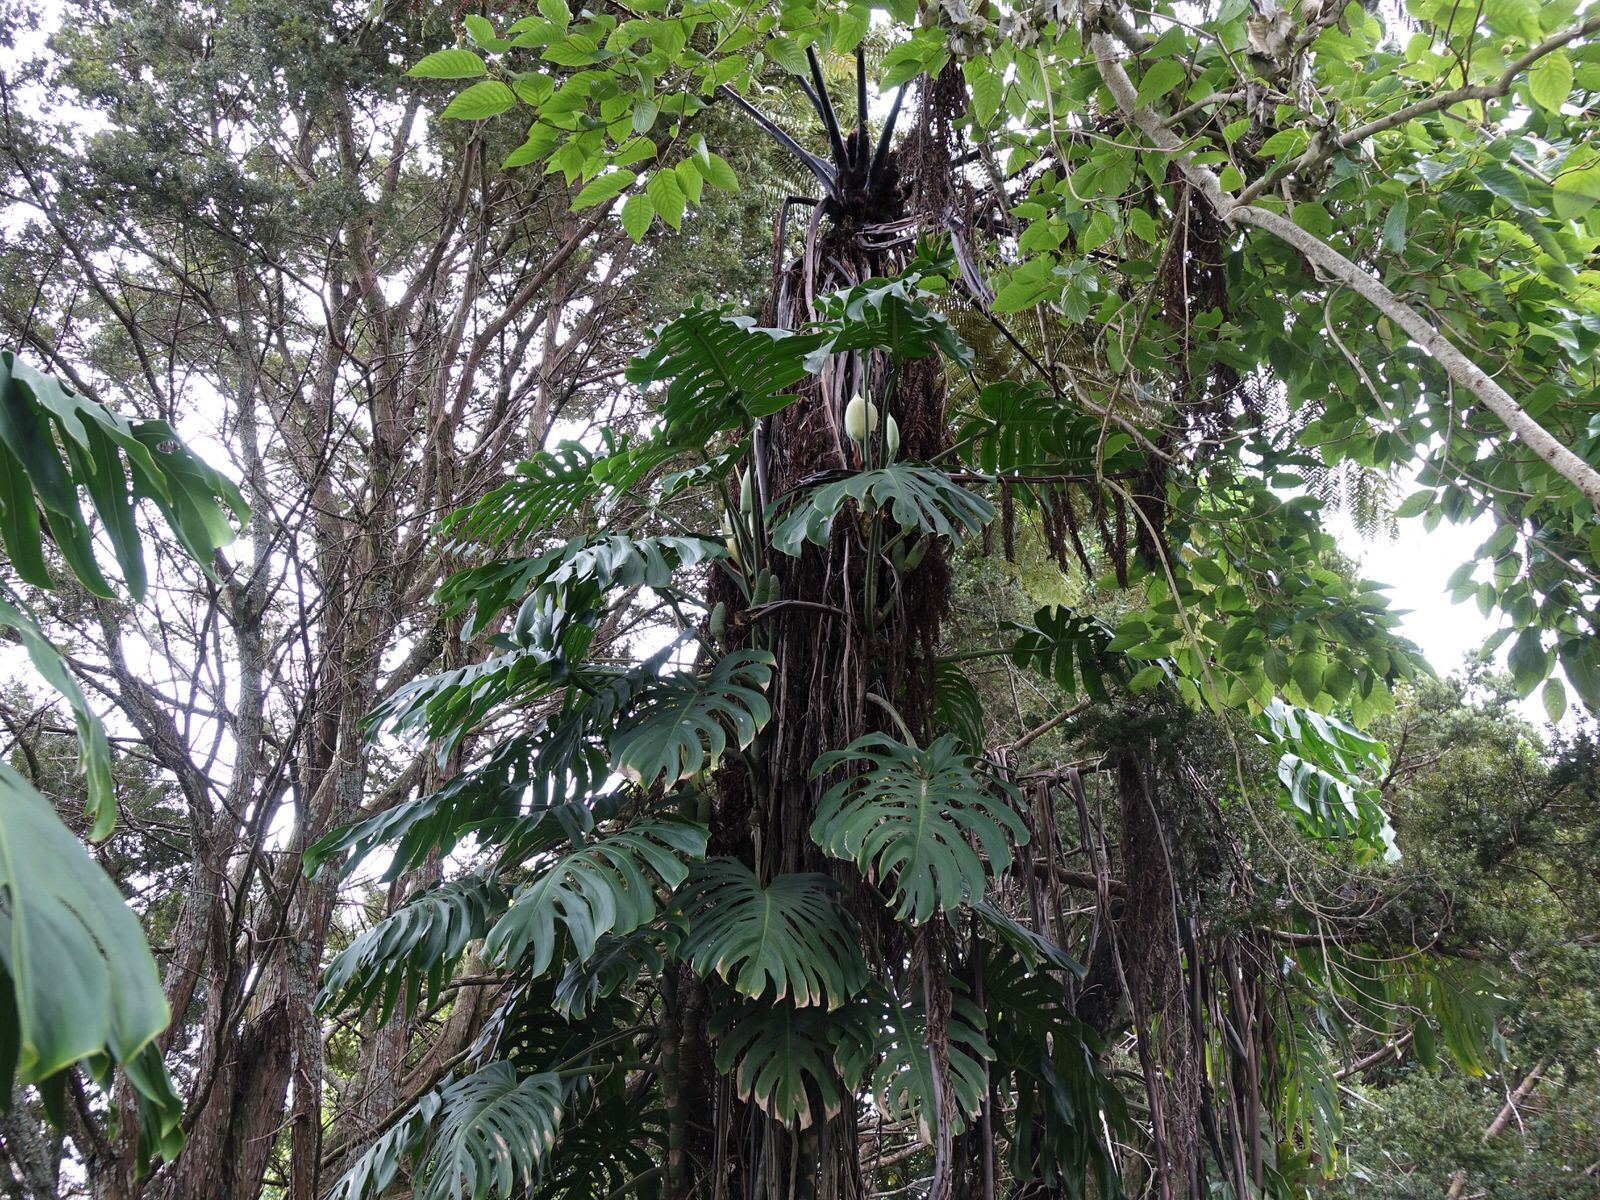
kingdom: Plantae
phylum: Tracheophyta
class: Liliopsida
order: Alismatales
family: Araceae
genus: Monstera
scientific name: Monstera deliciosa
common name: Cut-leaf-philodendron
